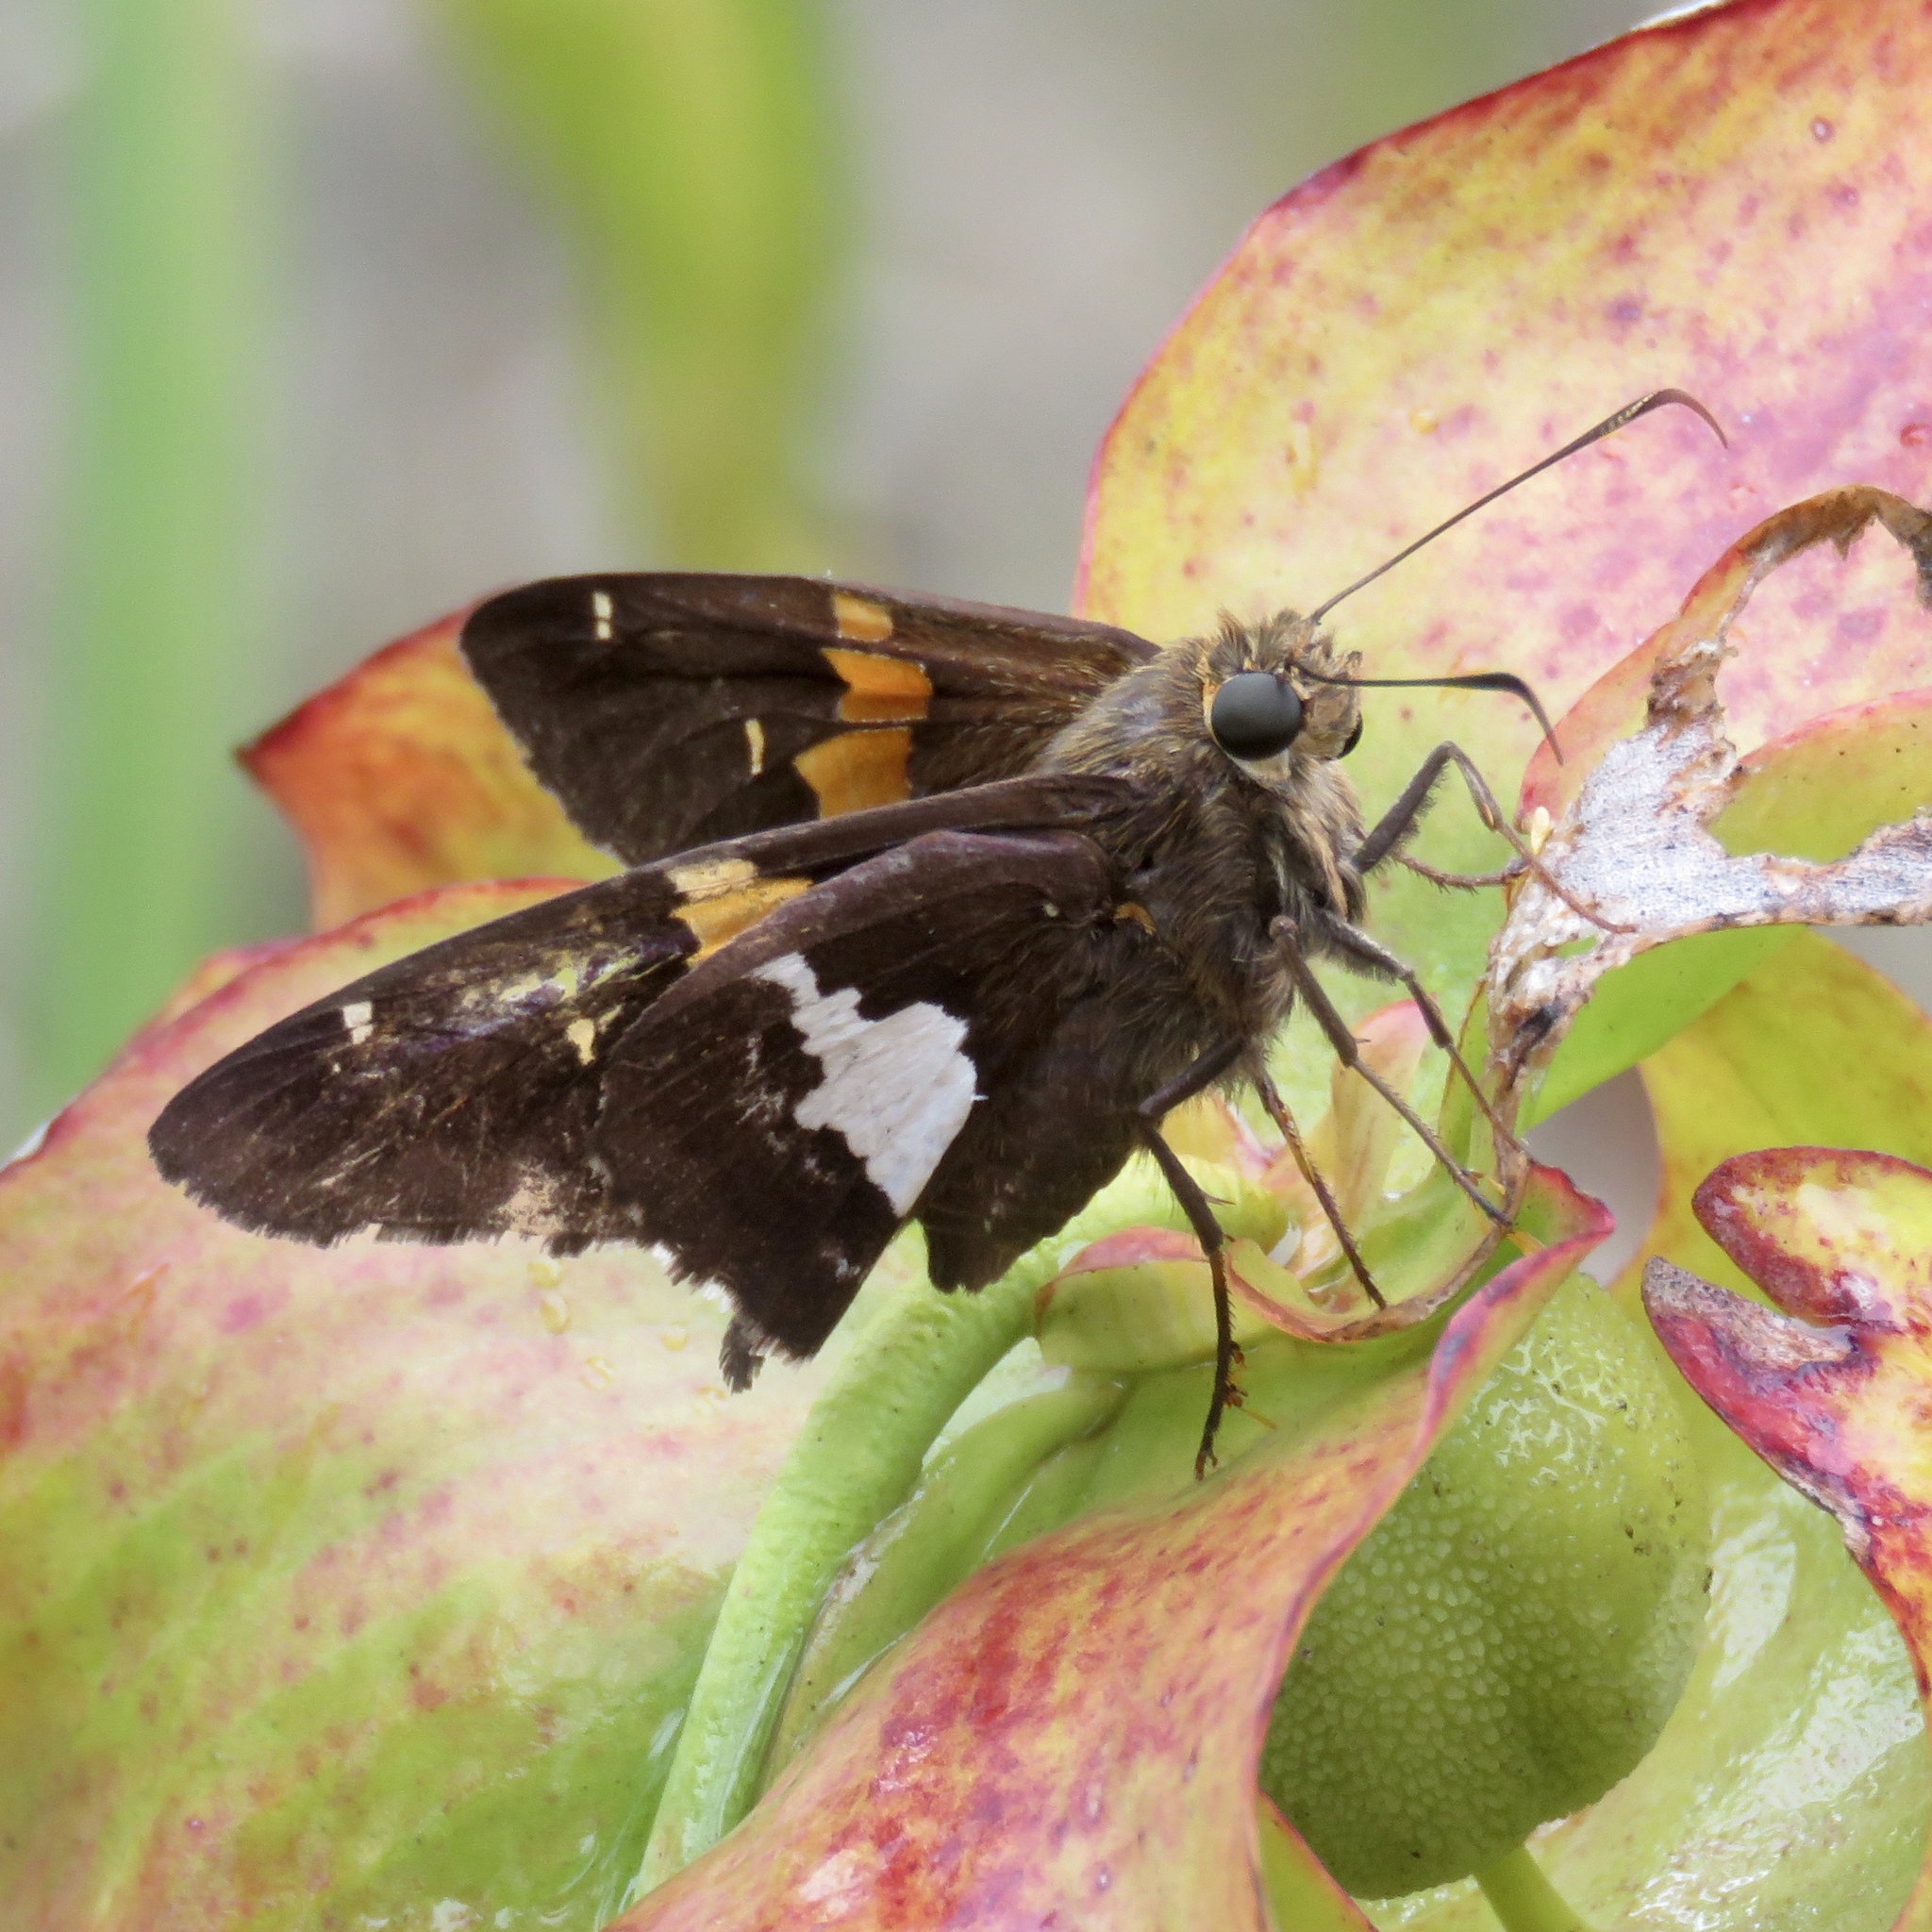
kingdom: Animalia
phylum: Arthropoda
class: Insecta
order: Lepidoptera
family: Hesperiidae
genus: Epargyreus
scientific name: Epargyreus clarus
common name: Silver-spotted skipper
